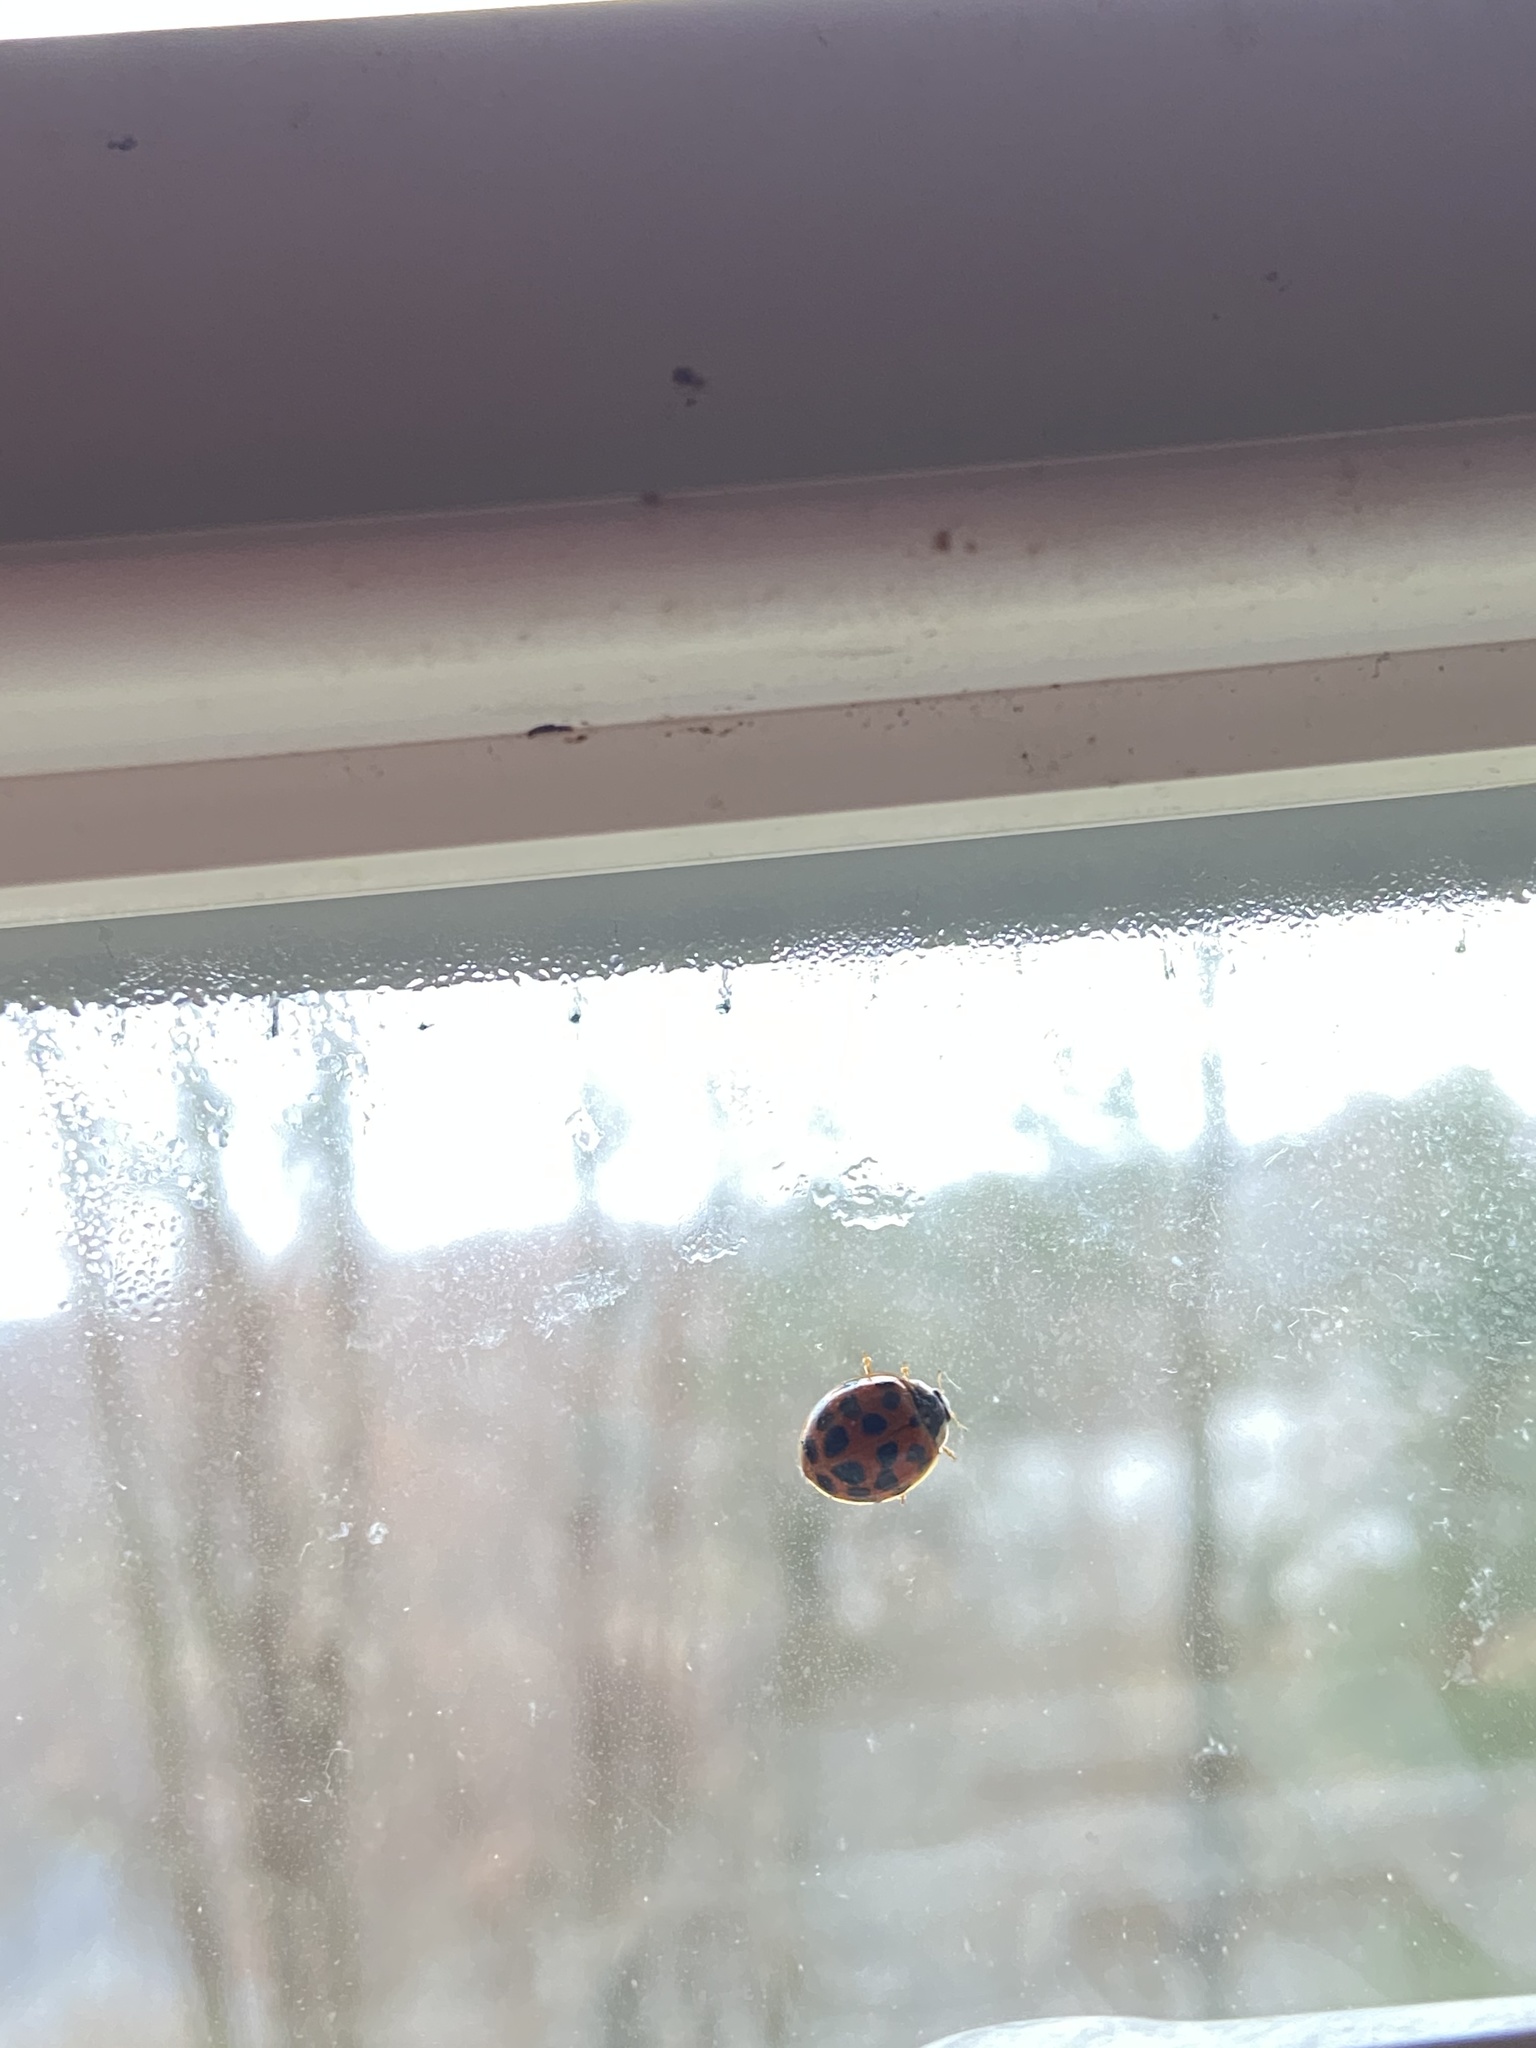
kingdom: Animalia
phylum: Arthropoda
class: Insecta
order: Coleoptera
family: Coccinellidae
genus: Harmonia
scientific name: Harmonia axyridis
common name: Harlequin ladybird
